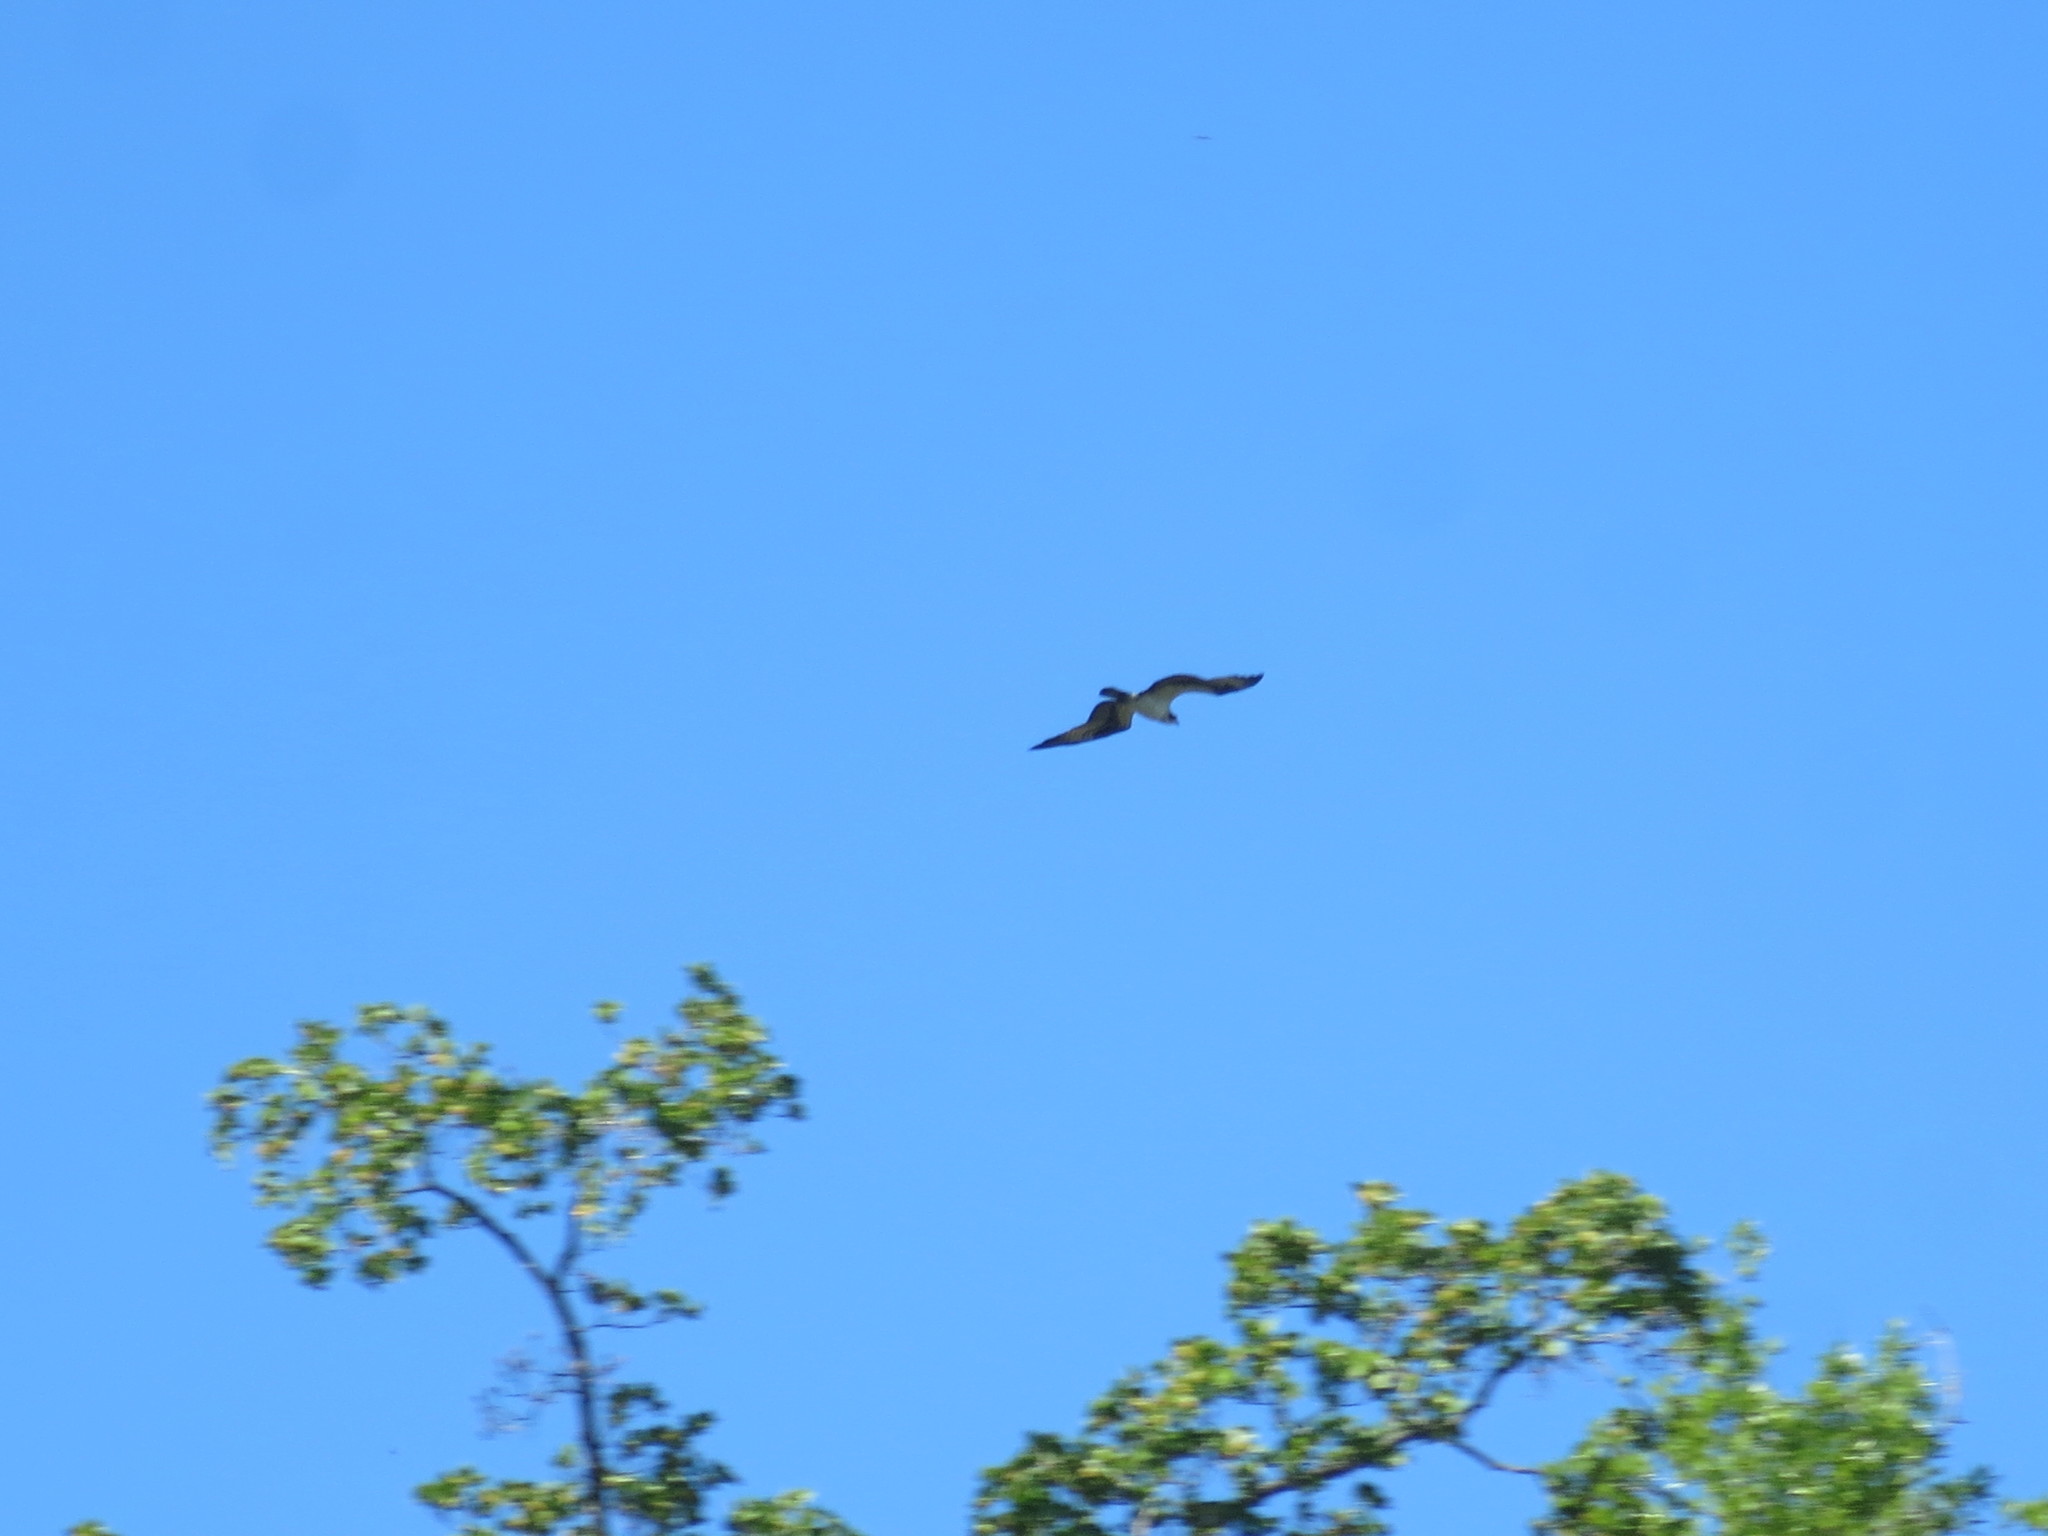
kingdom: Animalia
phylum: Chordata
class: Aves
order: Accipitriformes
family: Pandionidae
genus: Pandion
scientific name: Pandion haliaetus
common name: Osprey
